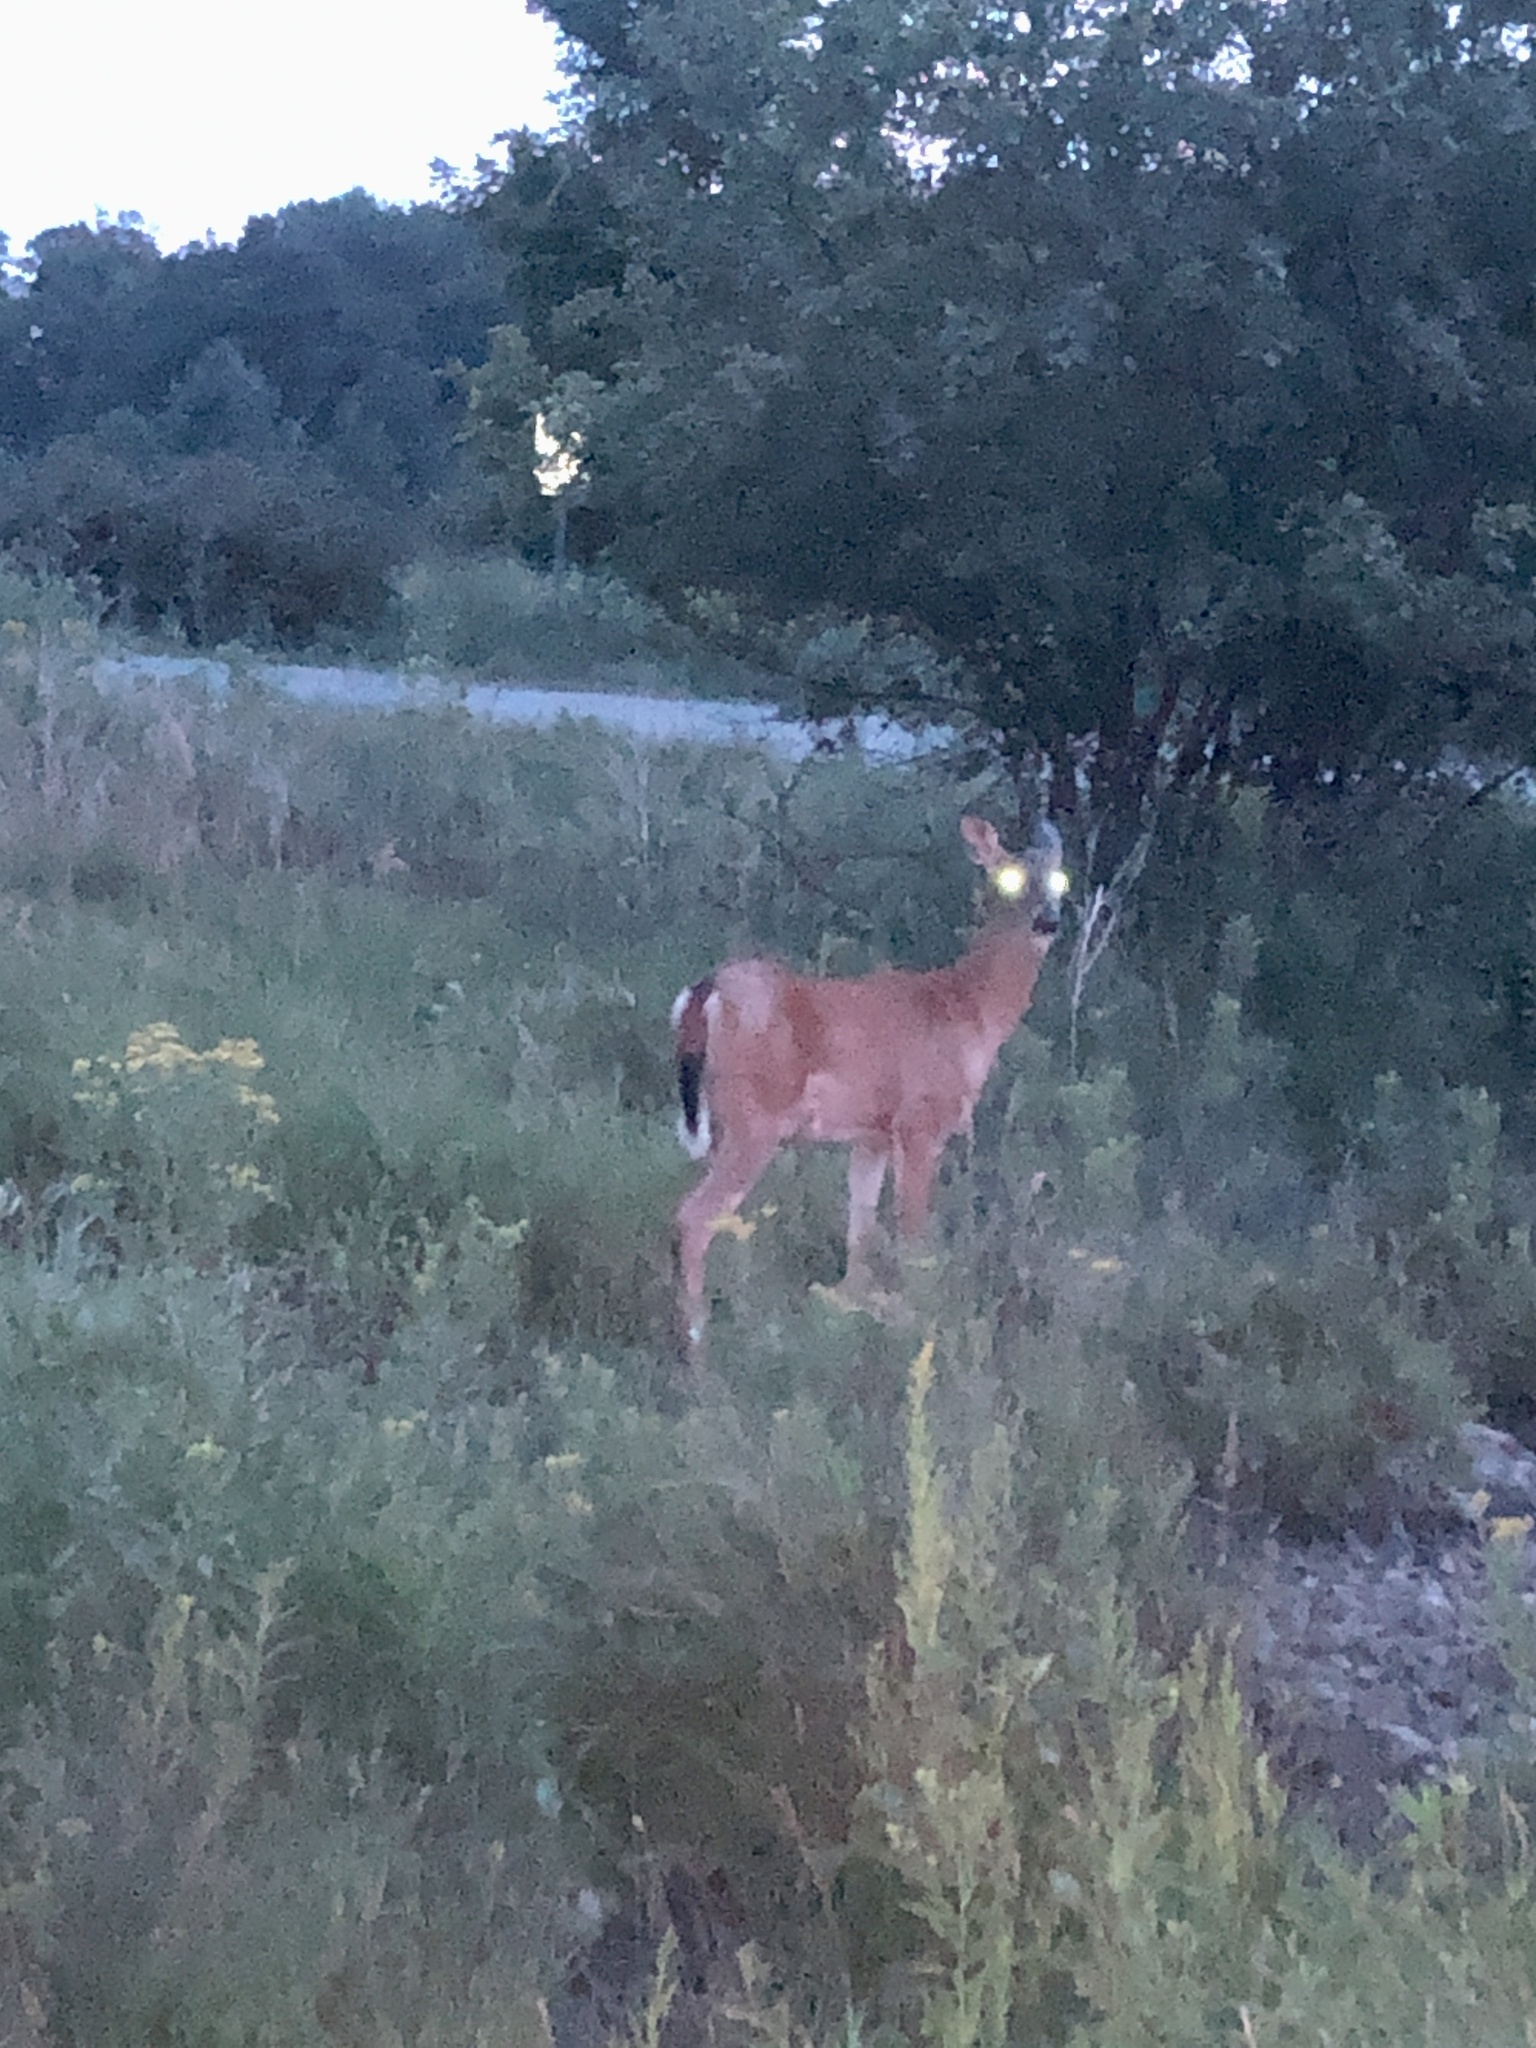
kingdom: Animalia
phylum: Chordata
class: Mammalia
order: Artiodactyla
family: Cervidae
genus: Odocoileus
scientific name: Odocoileus virginianus
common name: White-tailed deer
